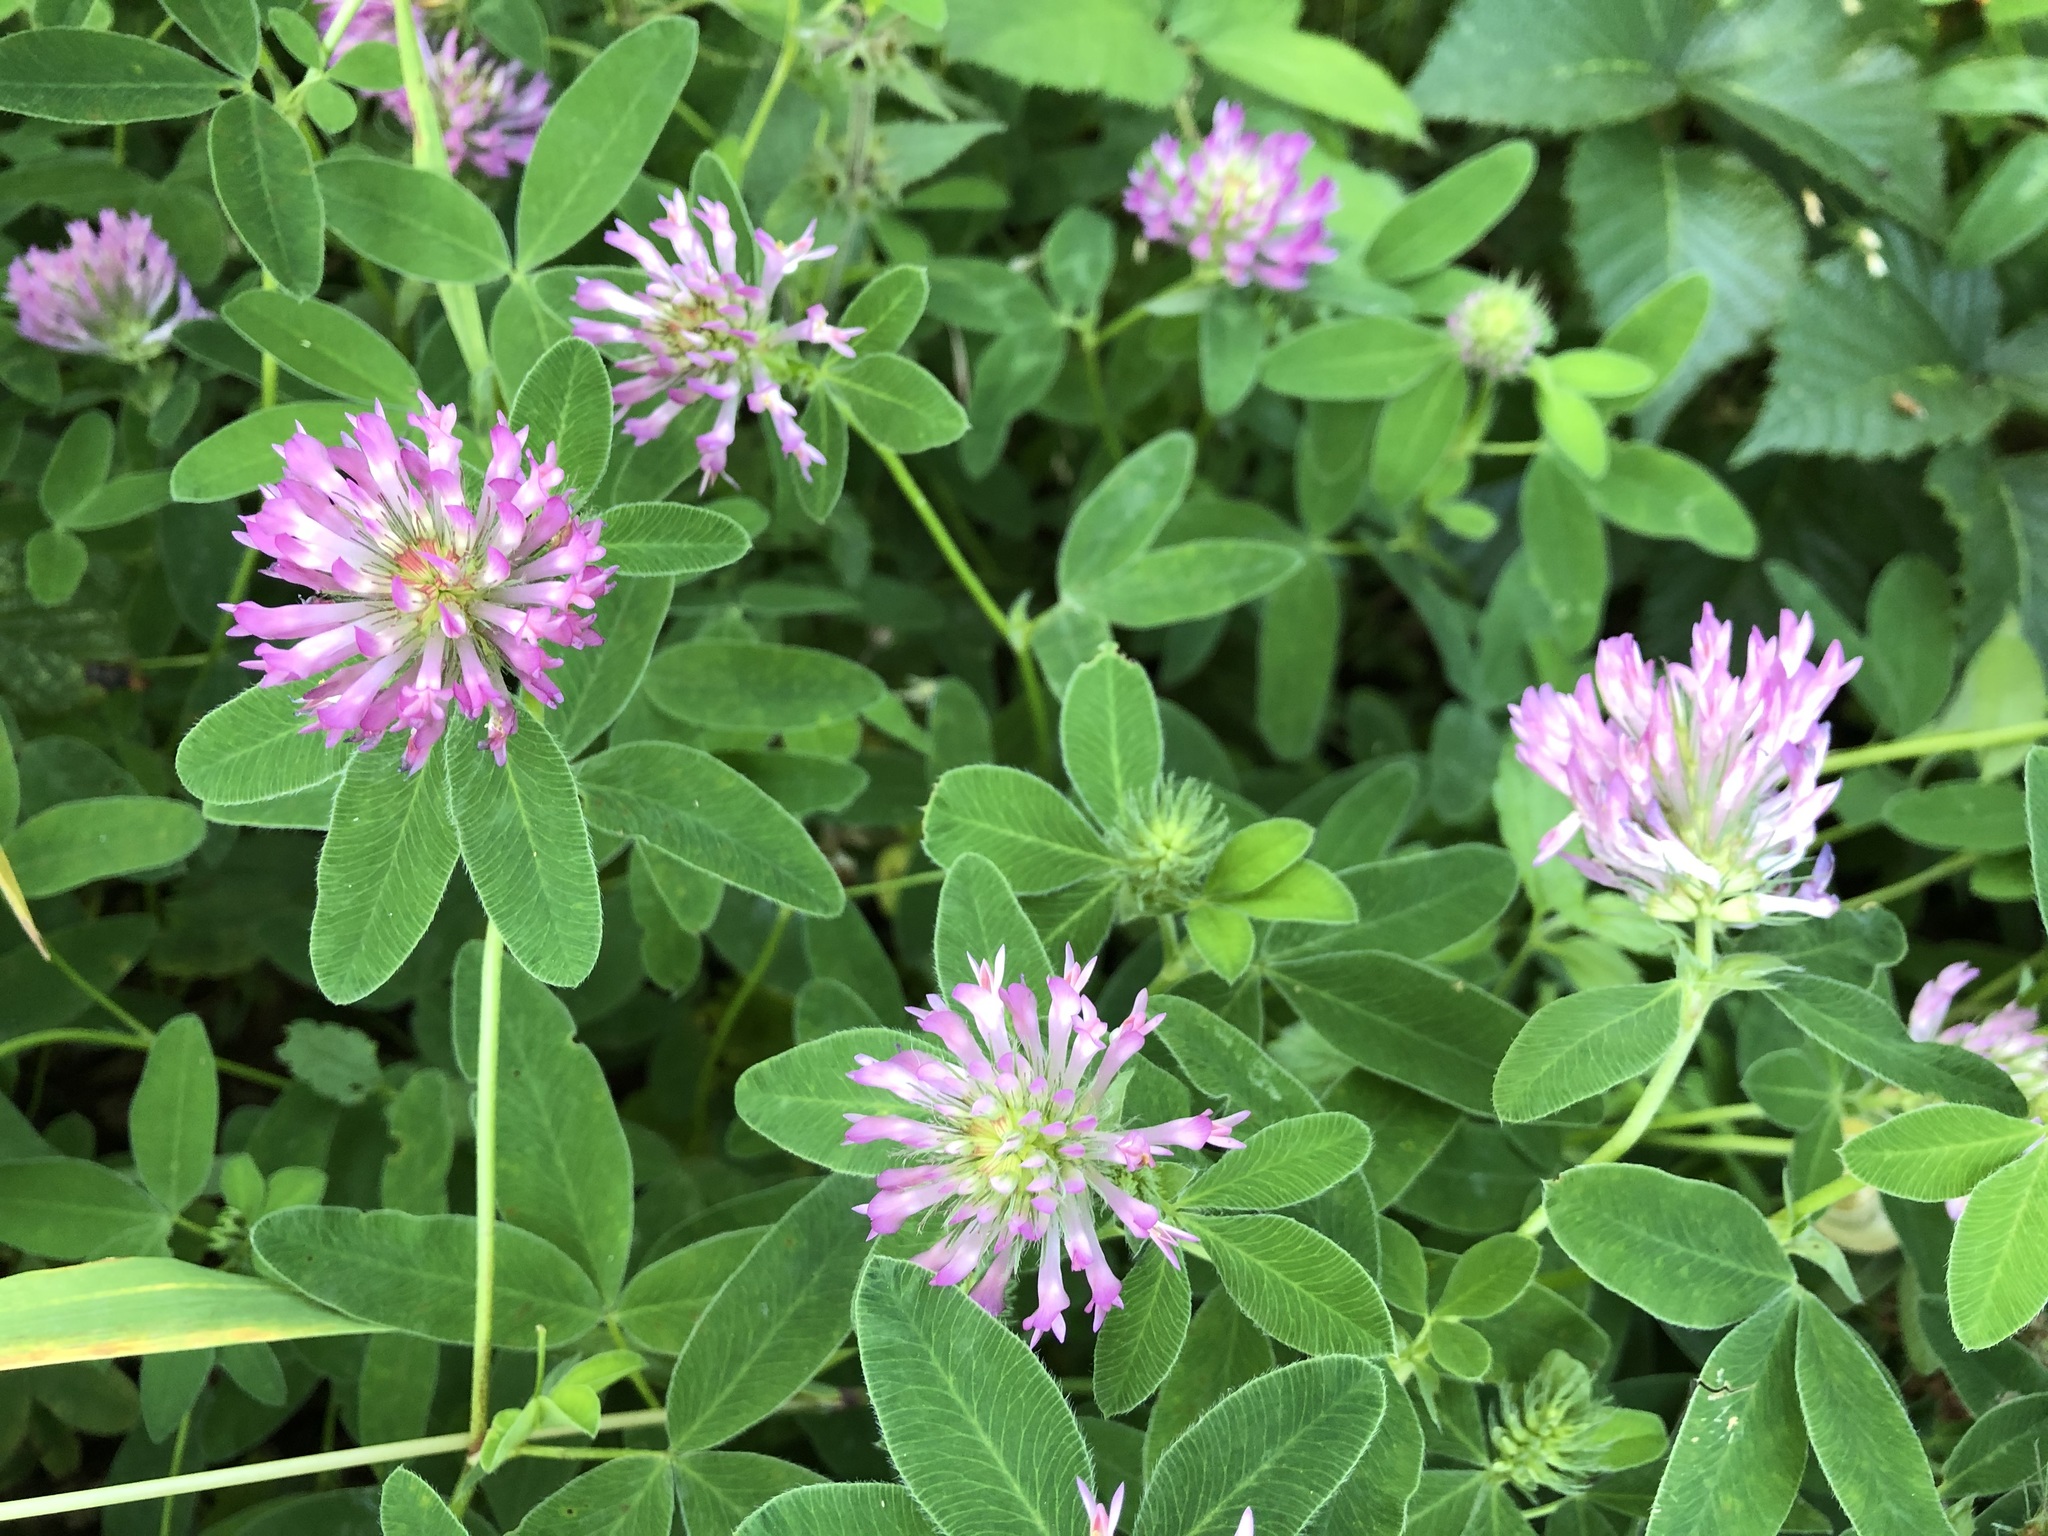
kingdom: Plantae
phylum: Tracheophyta
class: Magnoliopsida
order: Fabales
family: Fabaceae
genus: Trifolium
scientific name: Trifolium medium
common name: Zigzag clover
